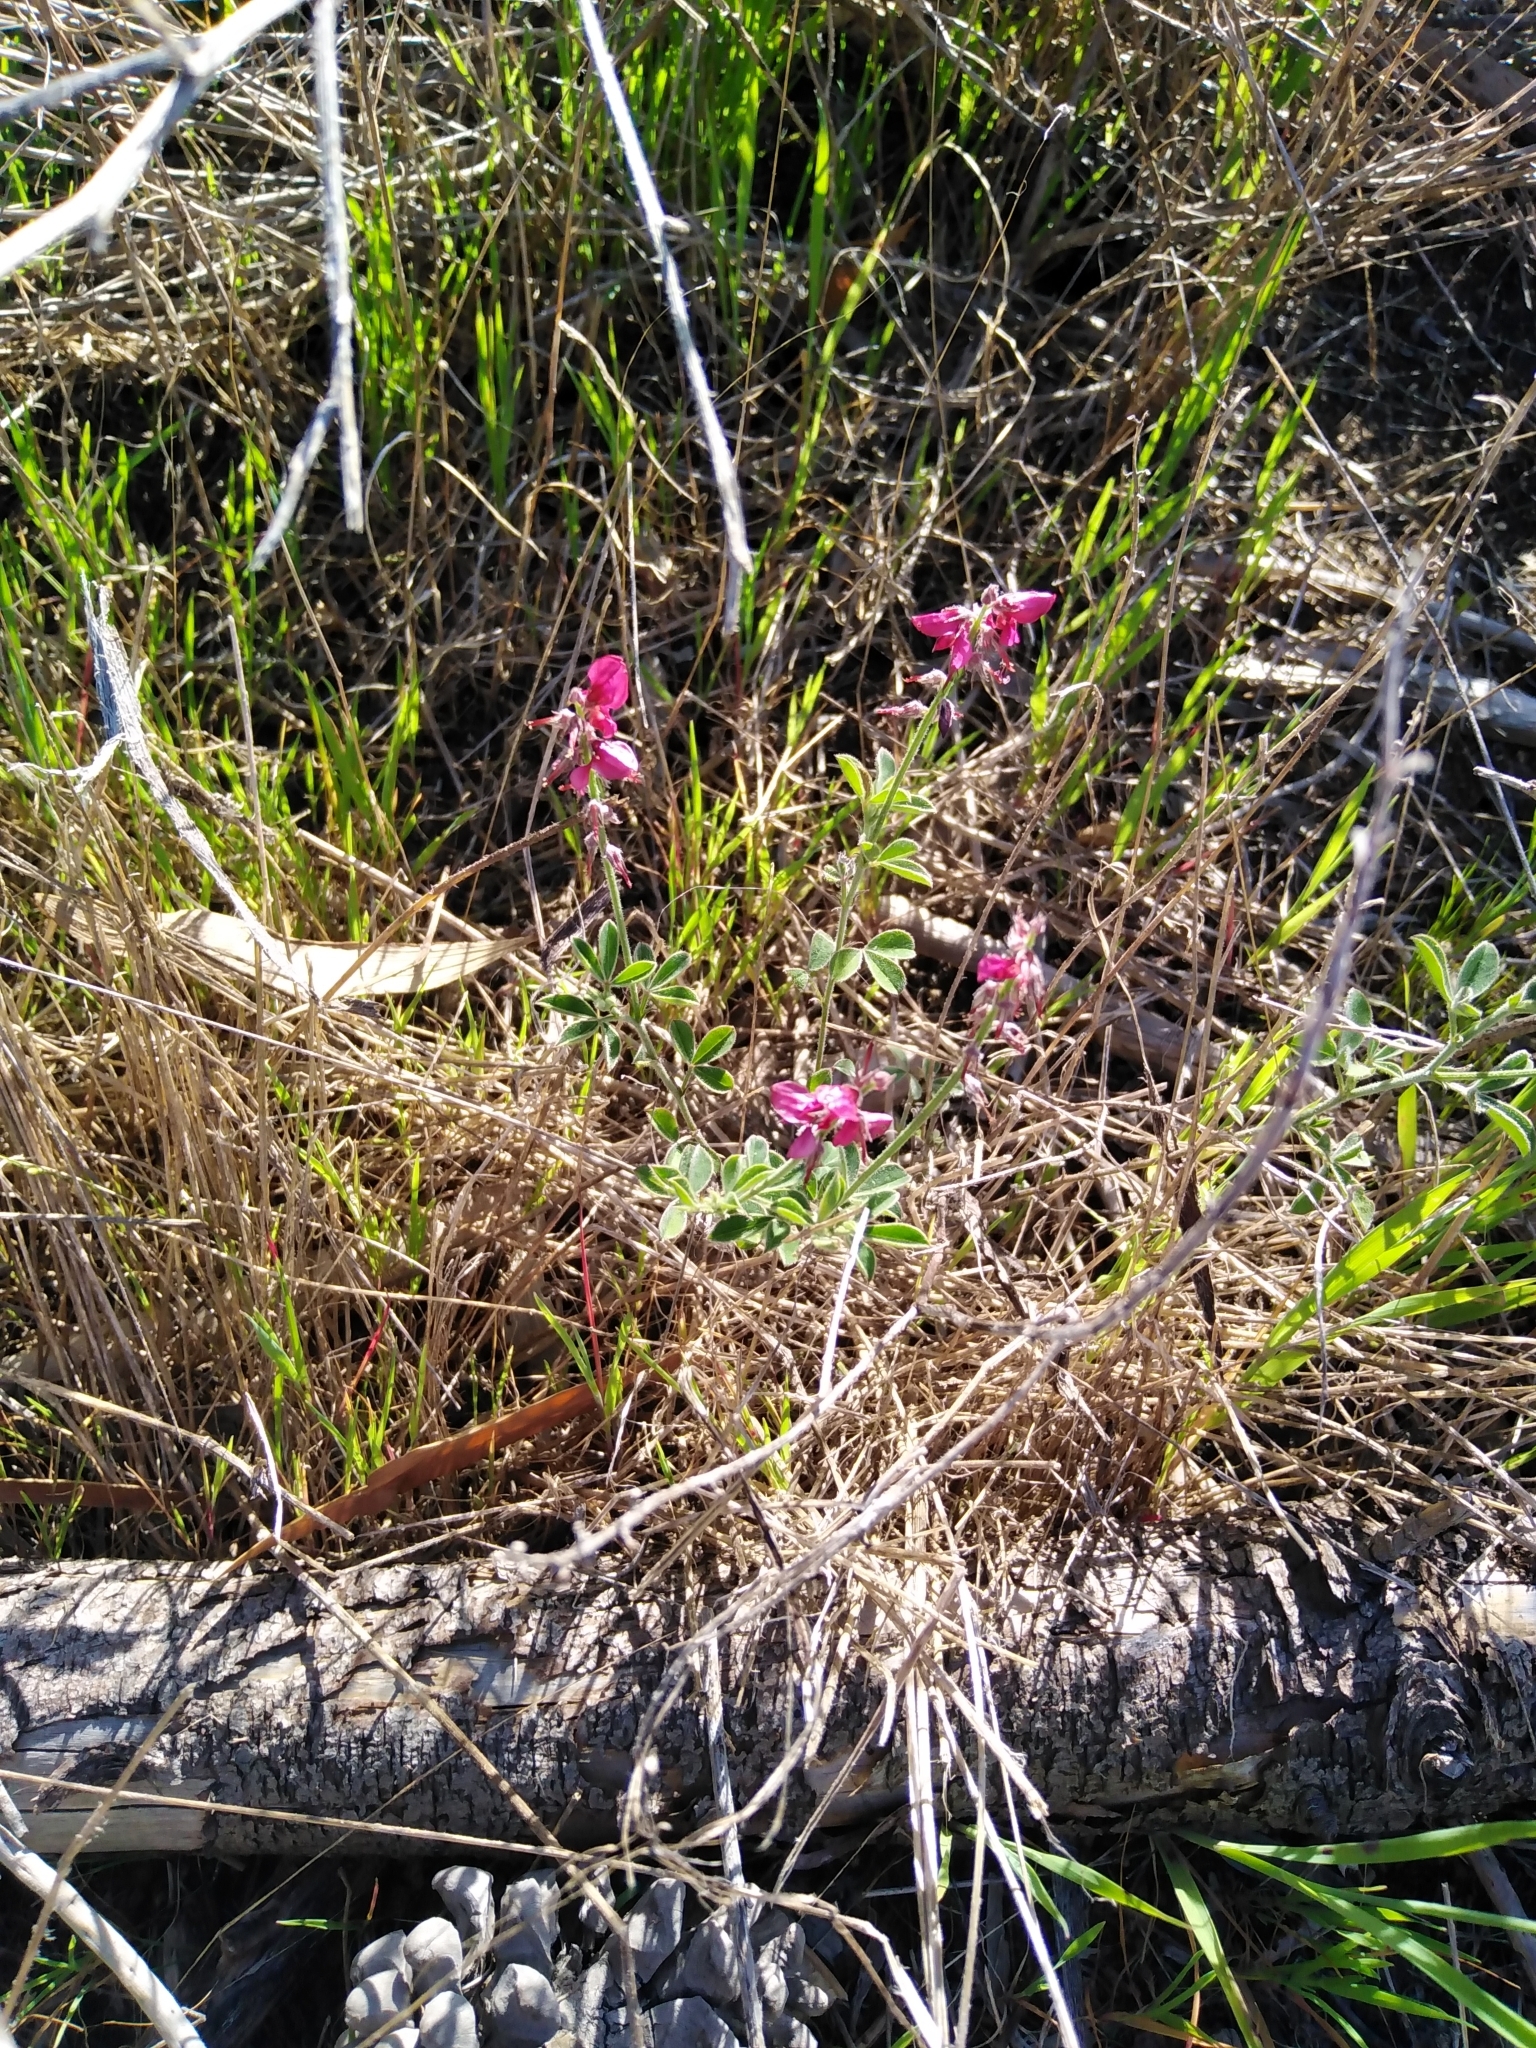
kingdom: Plantae
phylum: Tracheophyta
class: Magnoliopsida
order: Fabales
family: Fabaceae
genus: Indigofera
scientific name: Indigofera incana
